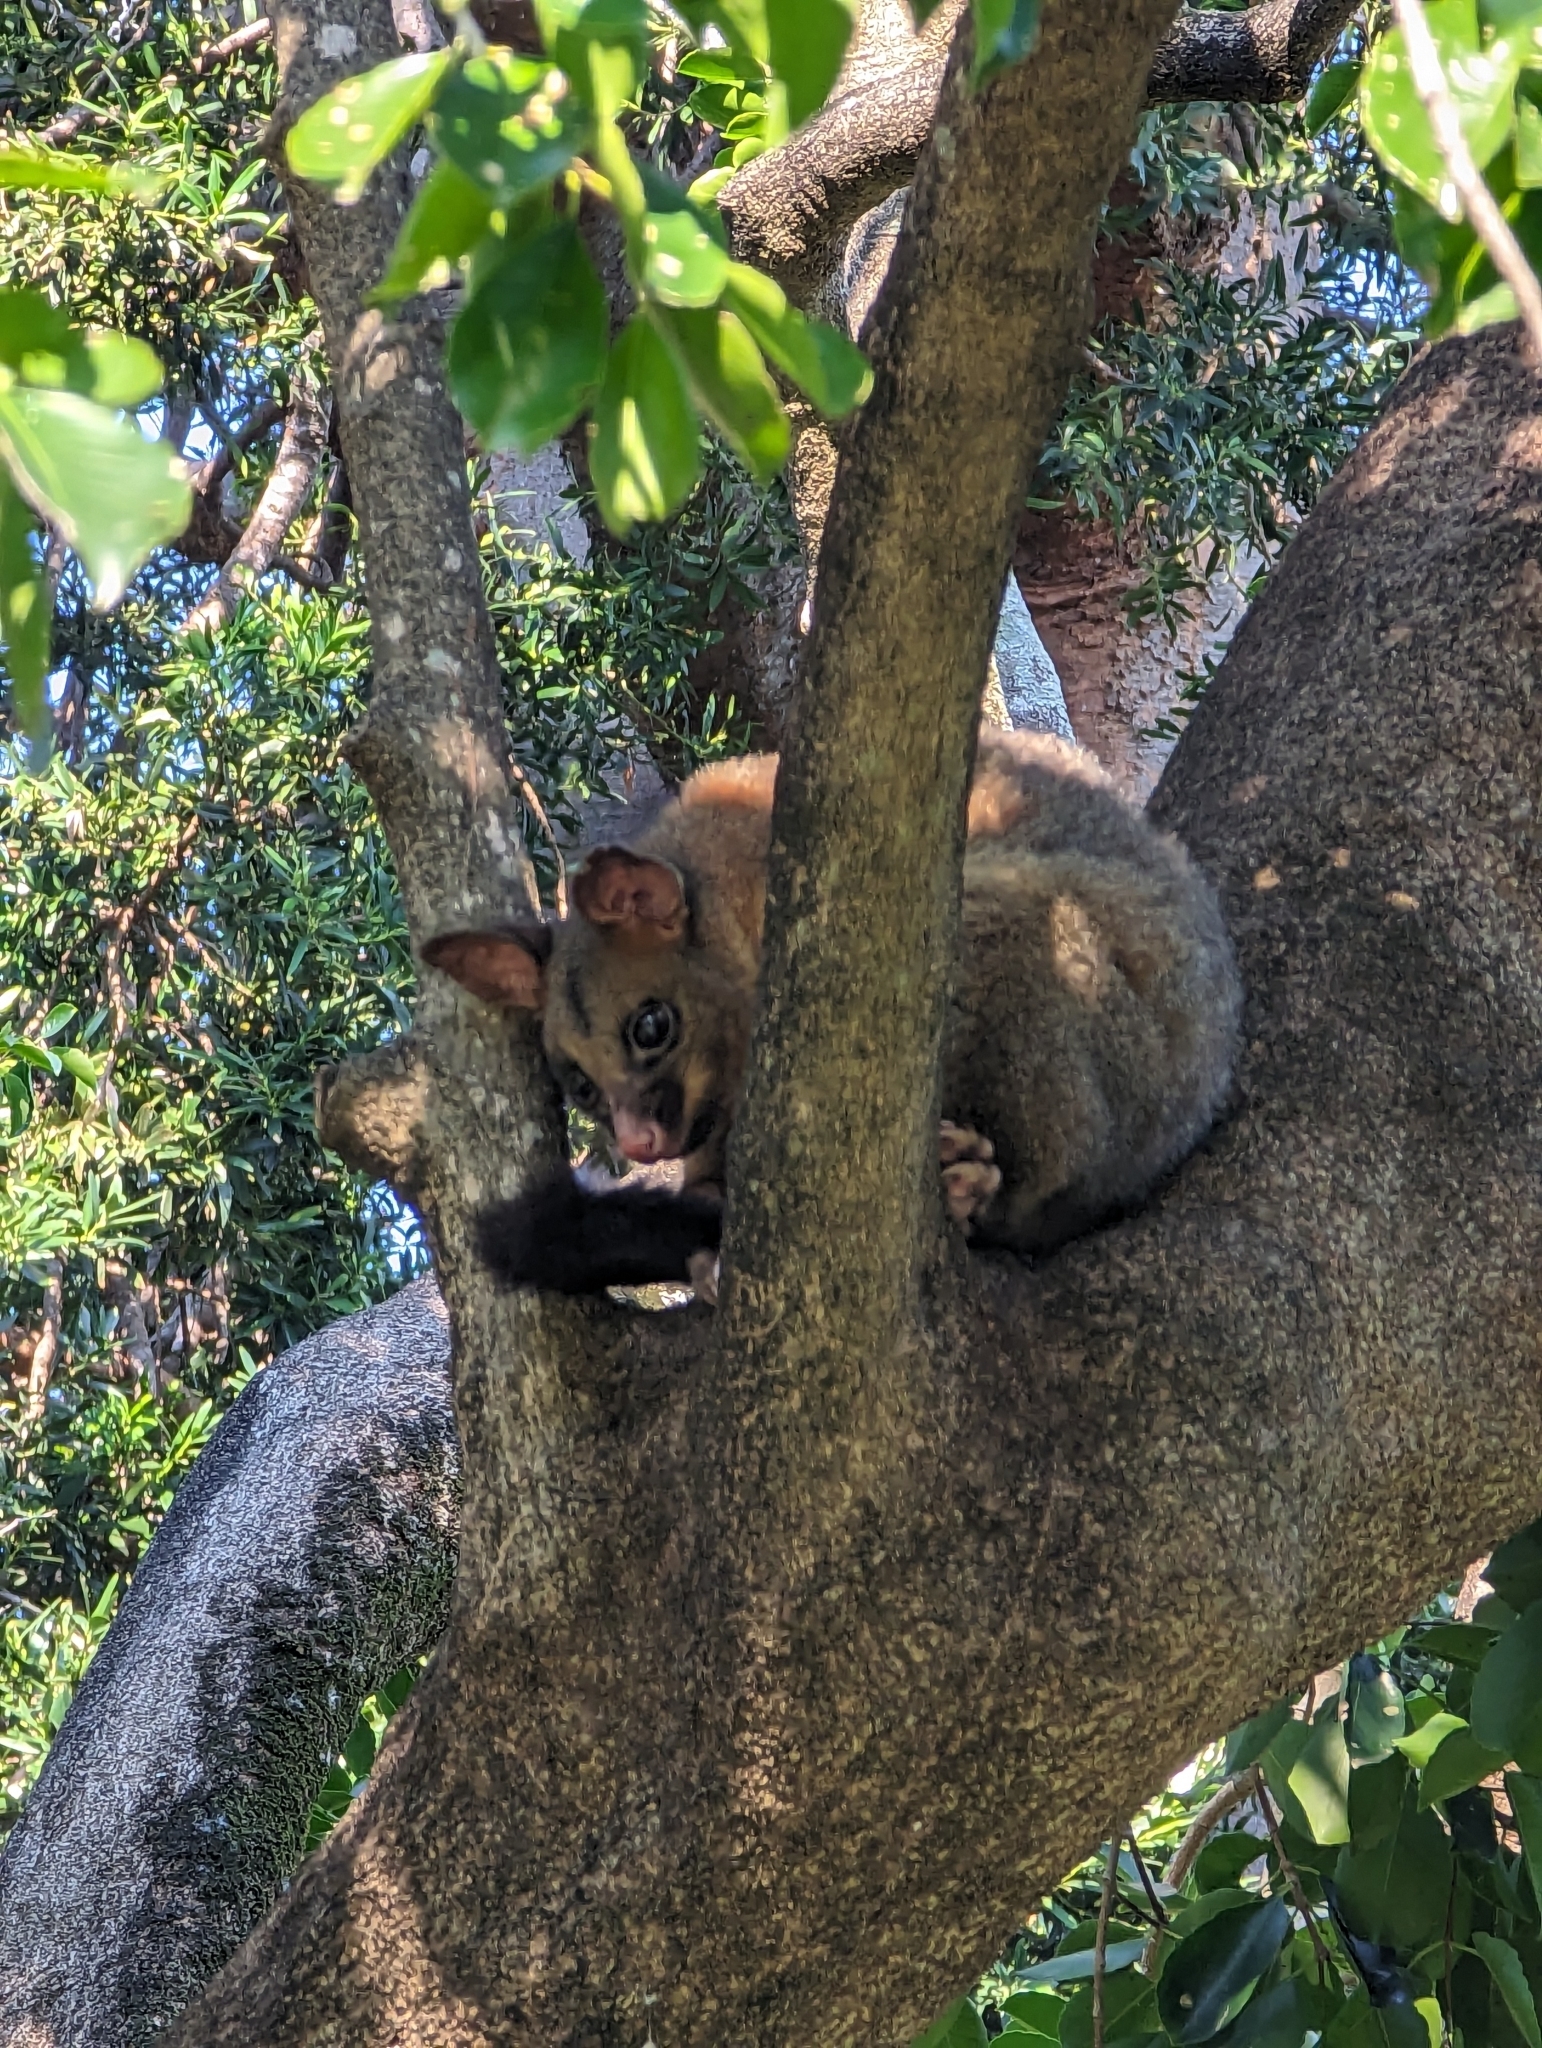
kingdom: Animalia
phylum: Chordata
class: Mammalia
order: Diprotodontia
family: Phalangeridae
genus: Trichosurus
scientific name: Trichosurus vulpecula
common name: Common brushtail
